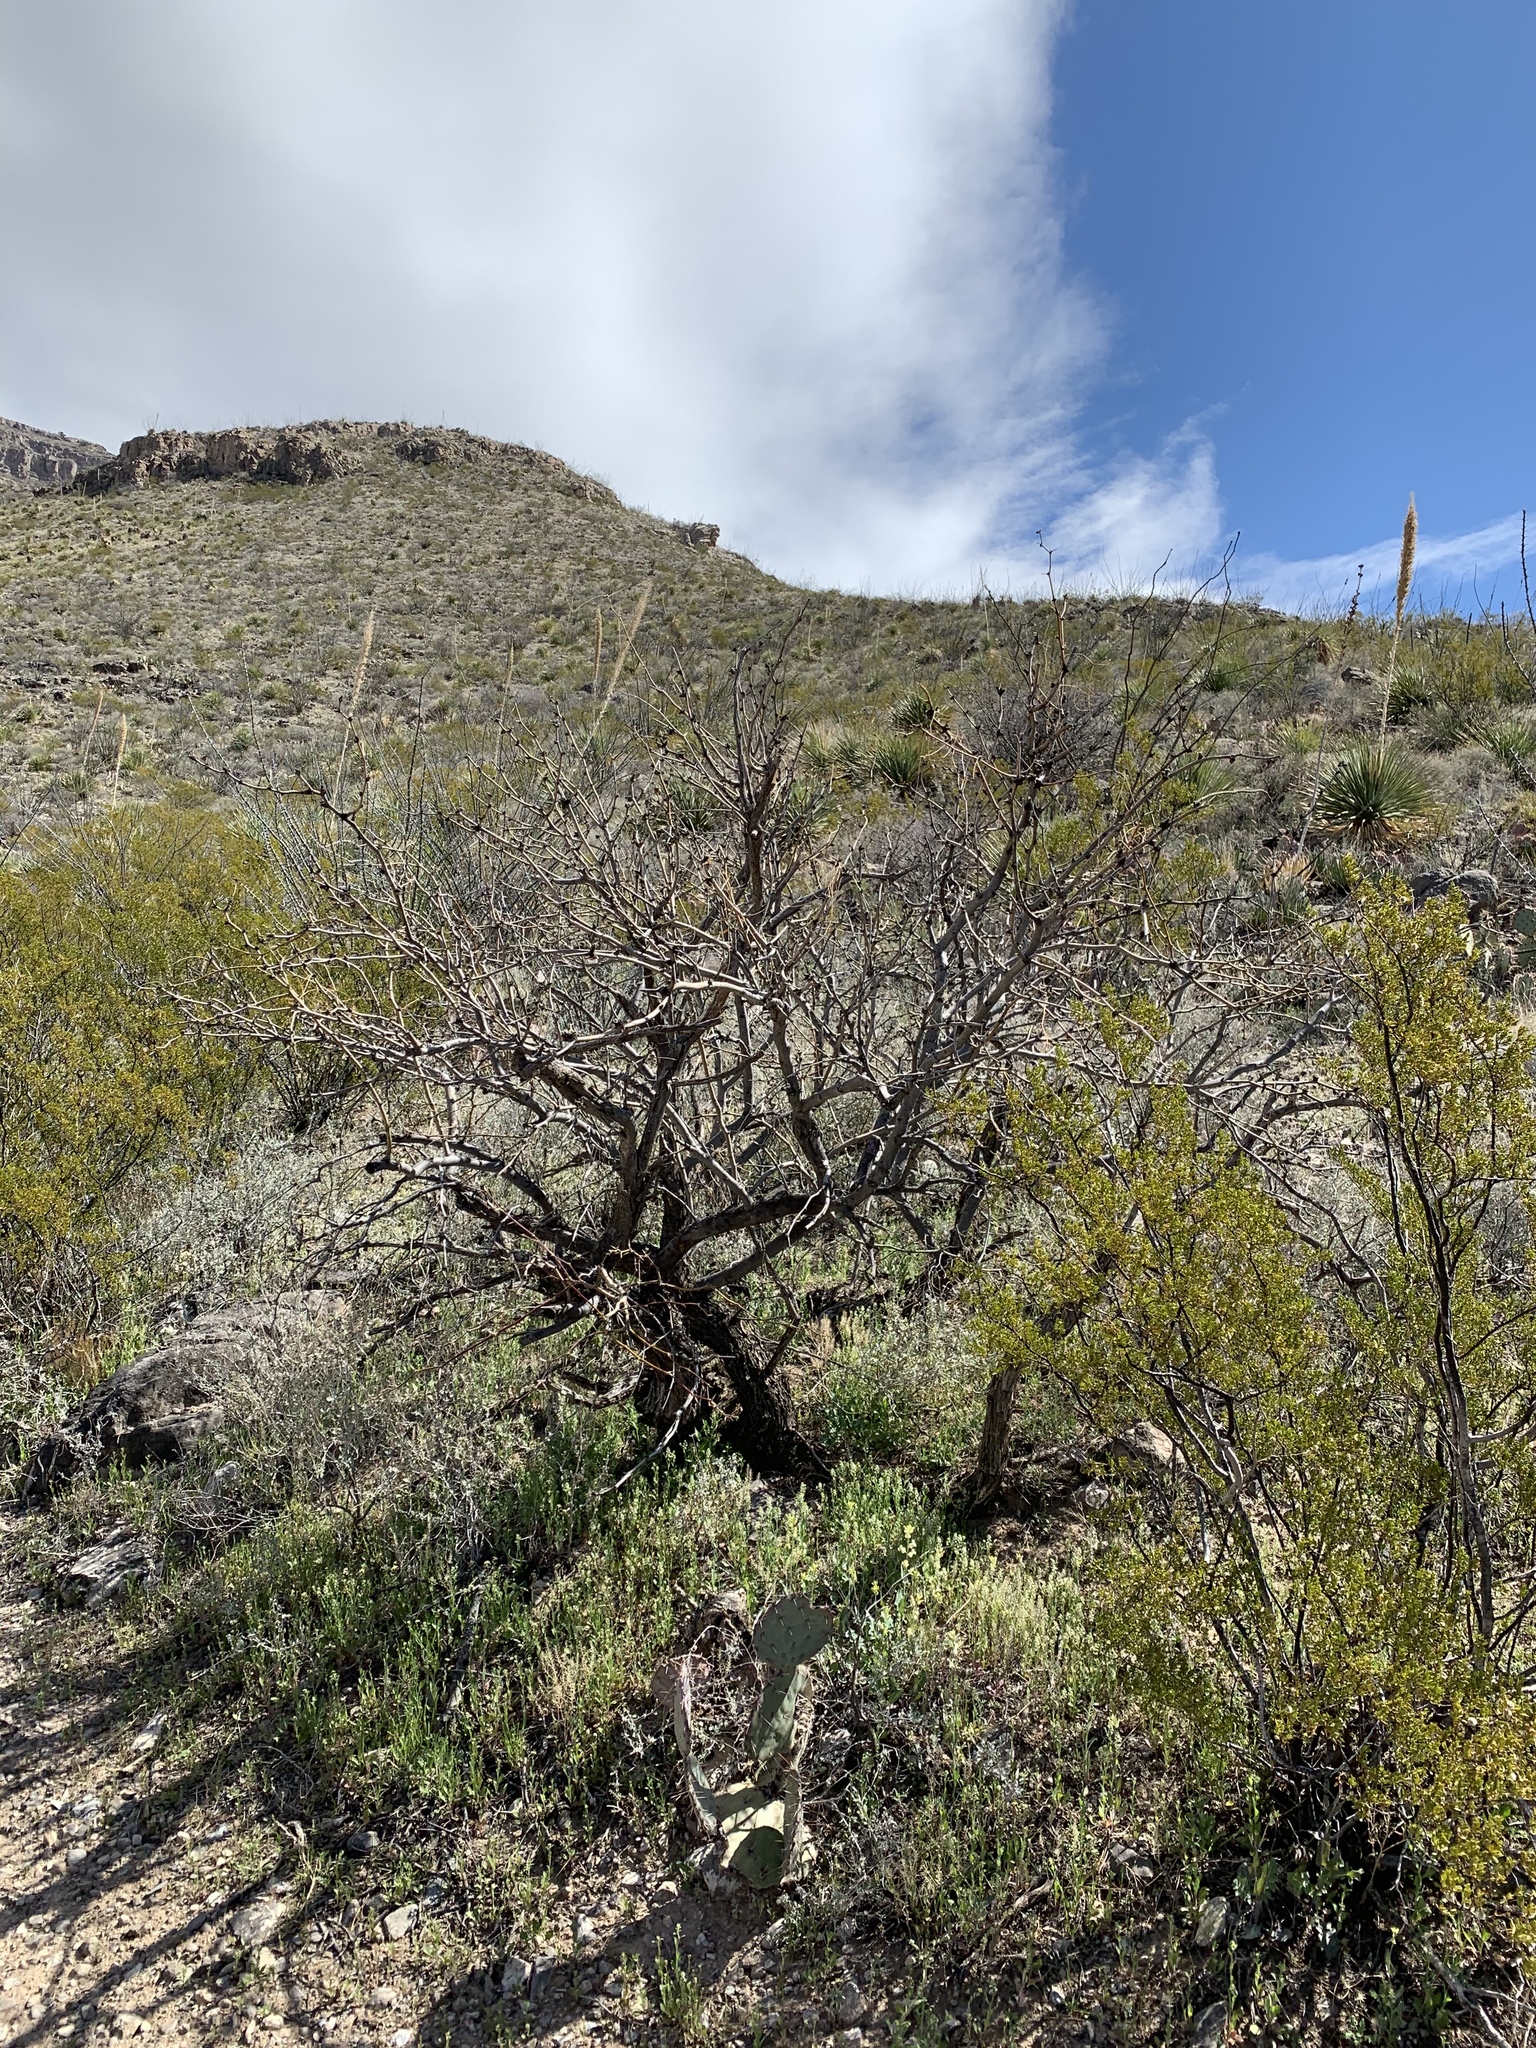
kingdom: Plantae
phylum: Tracheophyta
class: Magnoliopsida
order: Fabales
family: Fabaceae
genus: Prosopis
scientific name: Prosopis glandulosa
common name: Honey mesquite
